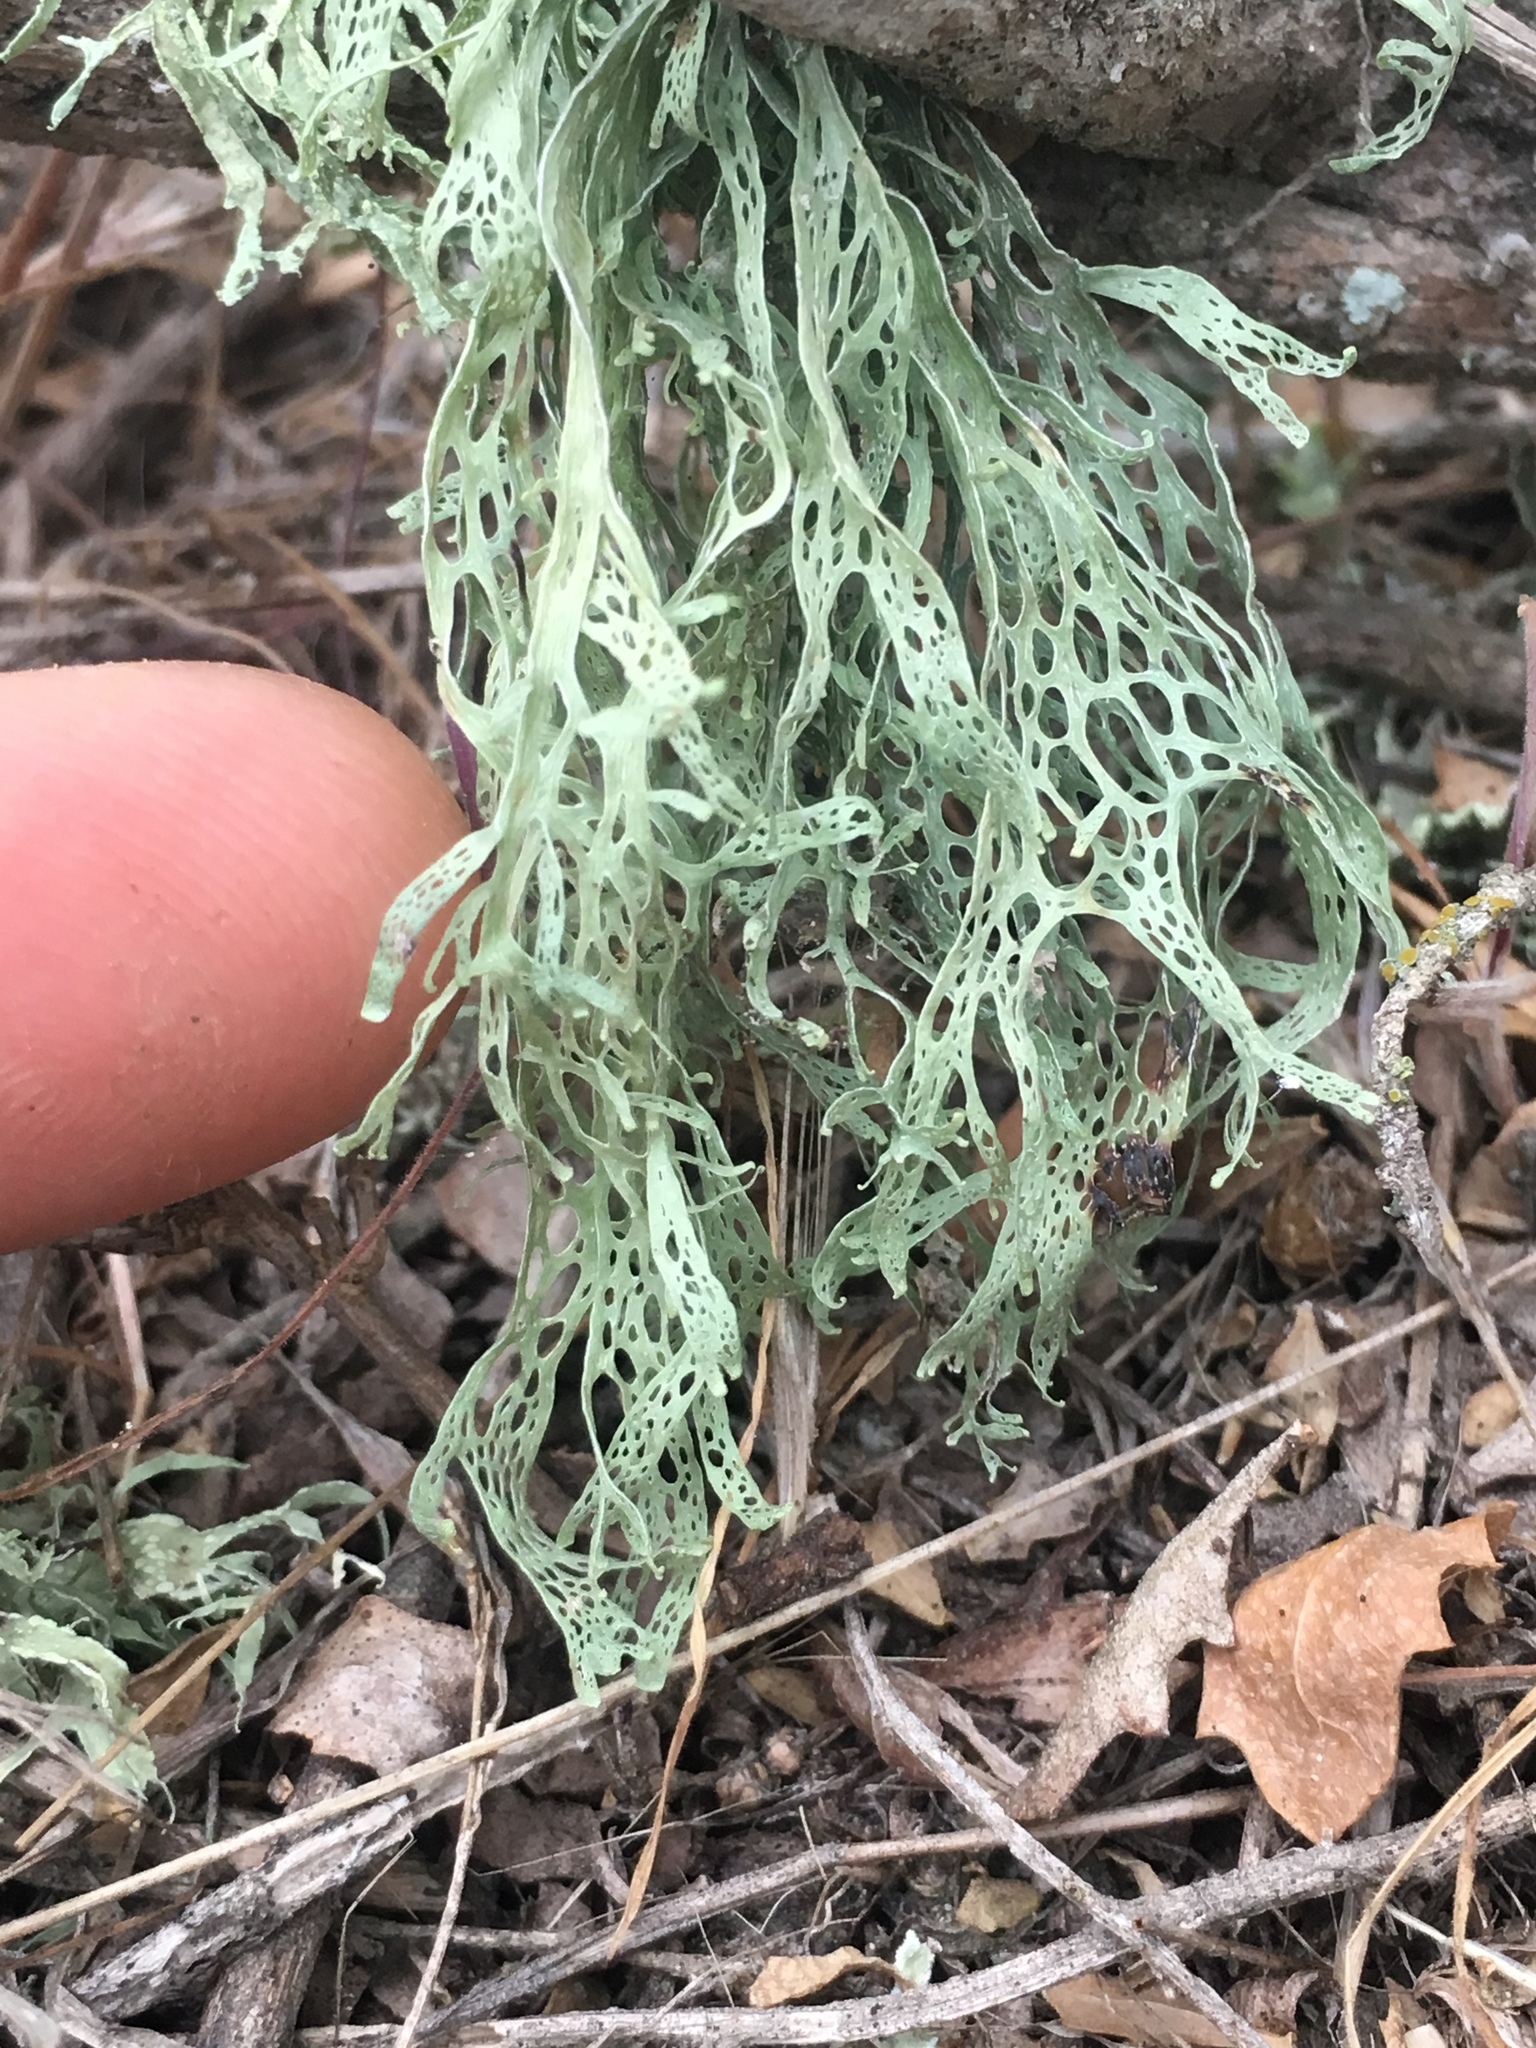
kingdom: Fungi
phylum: Ascomycota
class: Lecanoromycetes
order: Lecanorales
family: Ramalinaceae
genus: Ramalina
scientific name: Ramalina menziesii
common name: Lace lichen
